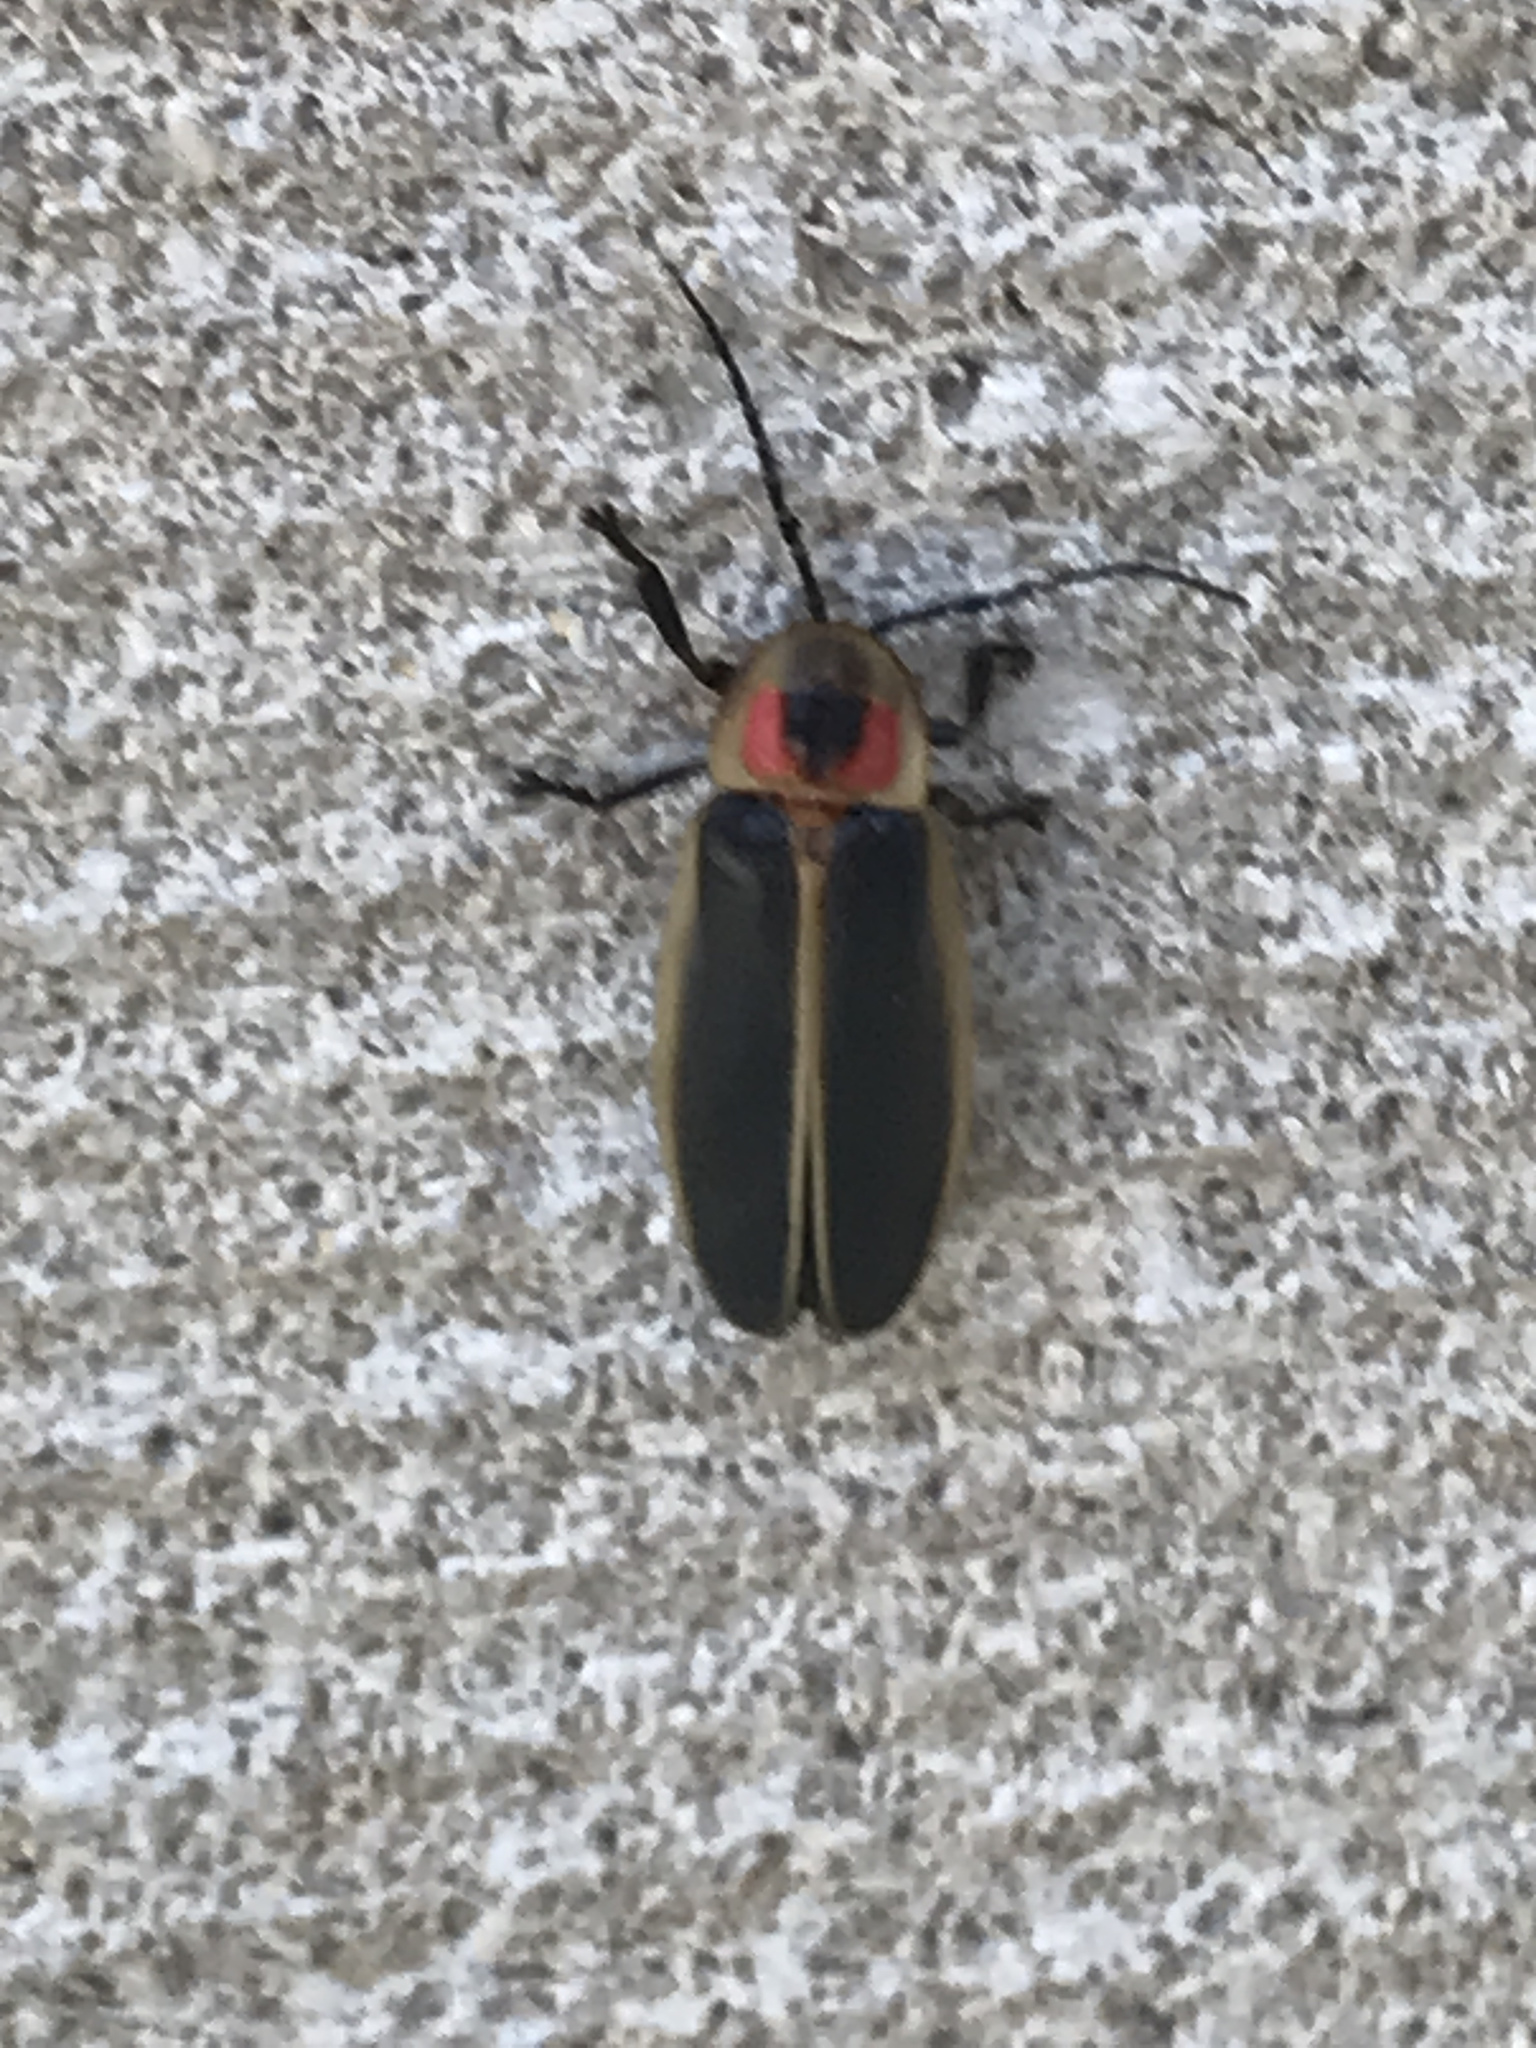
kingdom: Animalia
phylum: Arthropoda
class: Insecta
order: Coleoptera
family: Lampyridae
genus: Photinus
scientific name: Photinus pyralis
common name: Big dipper firefly
